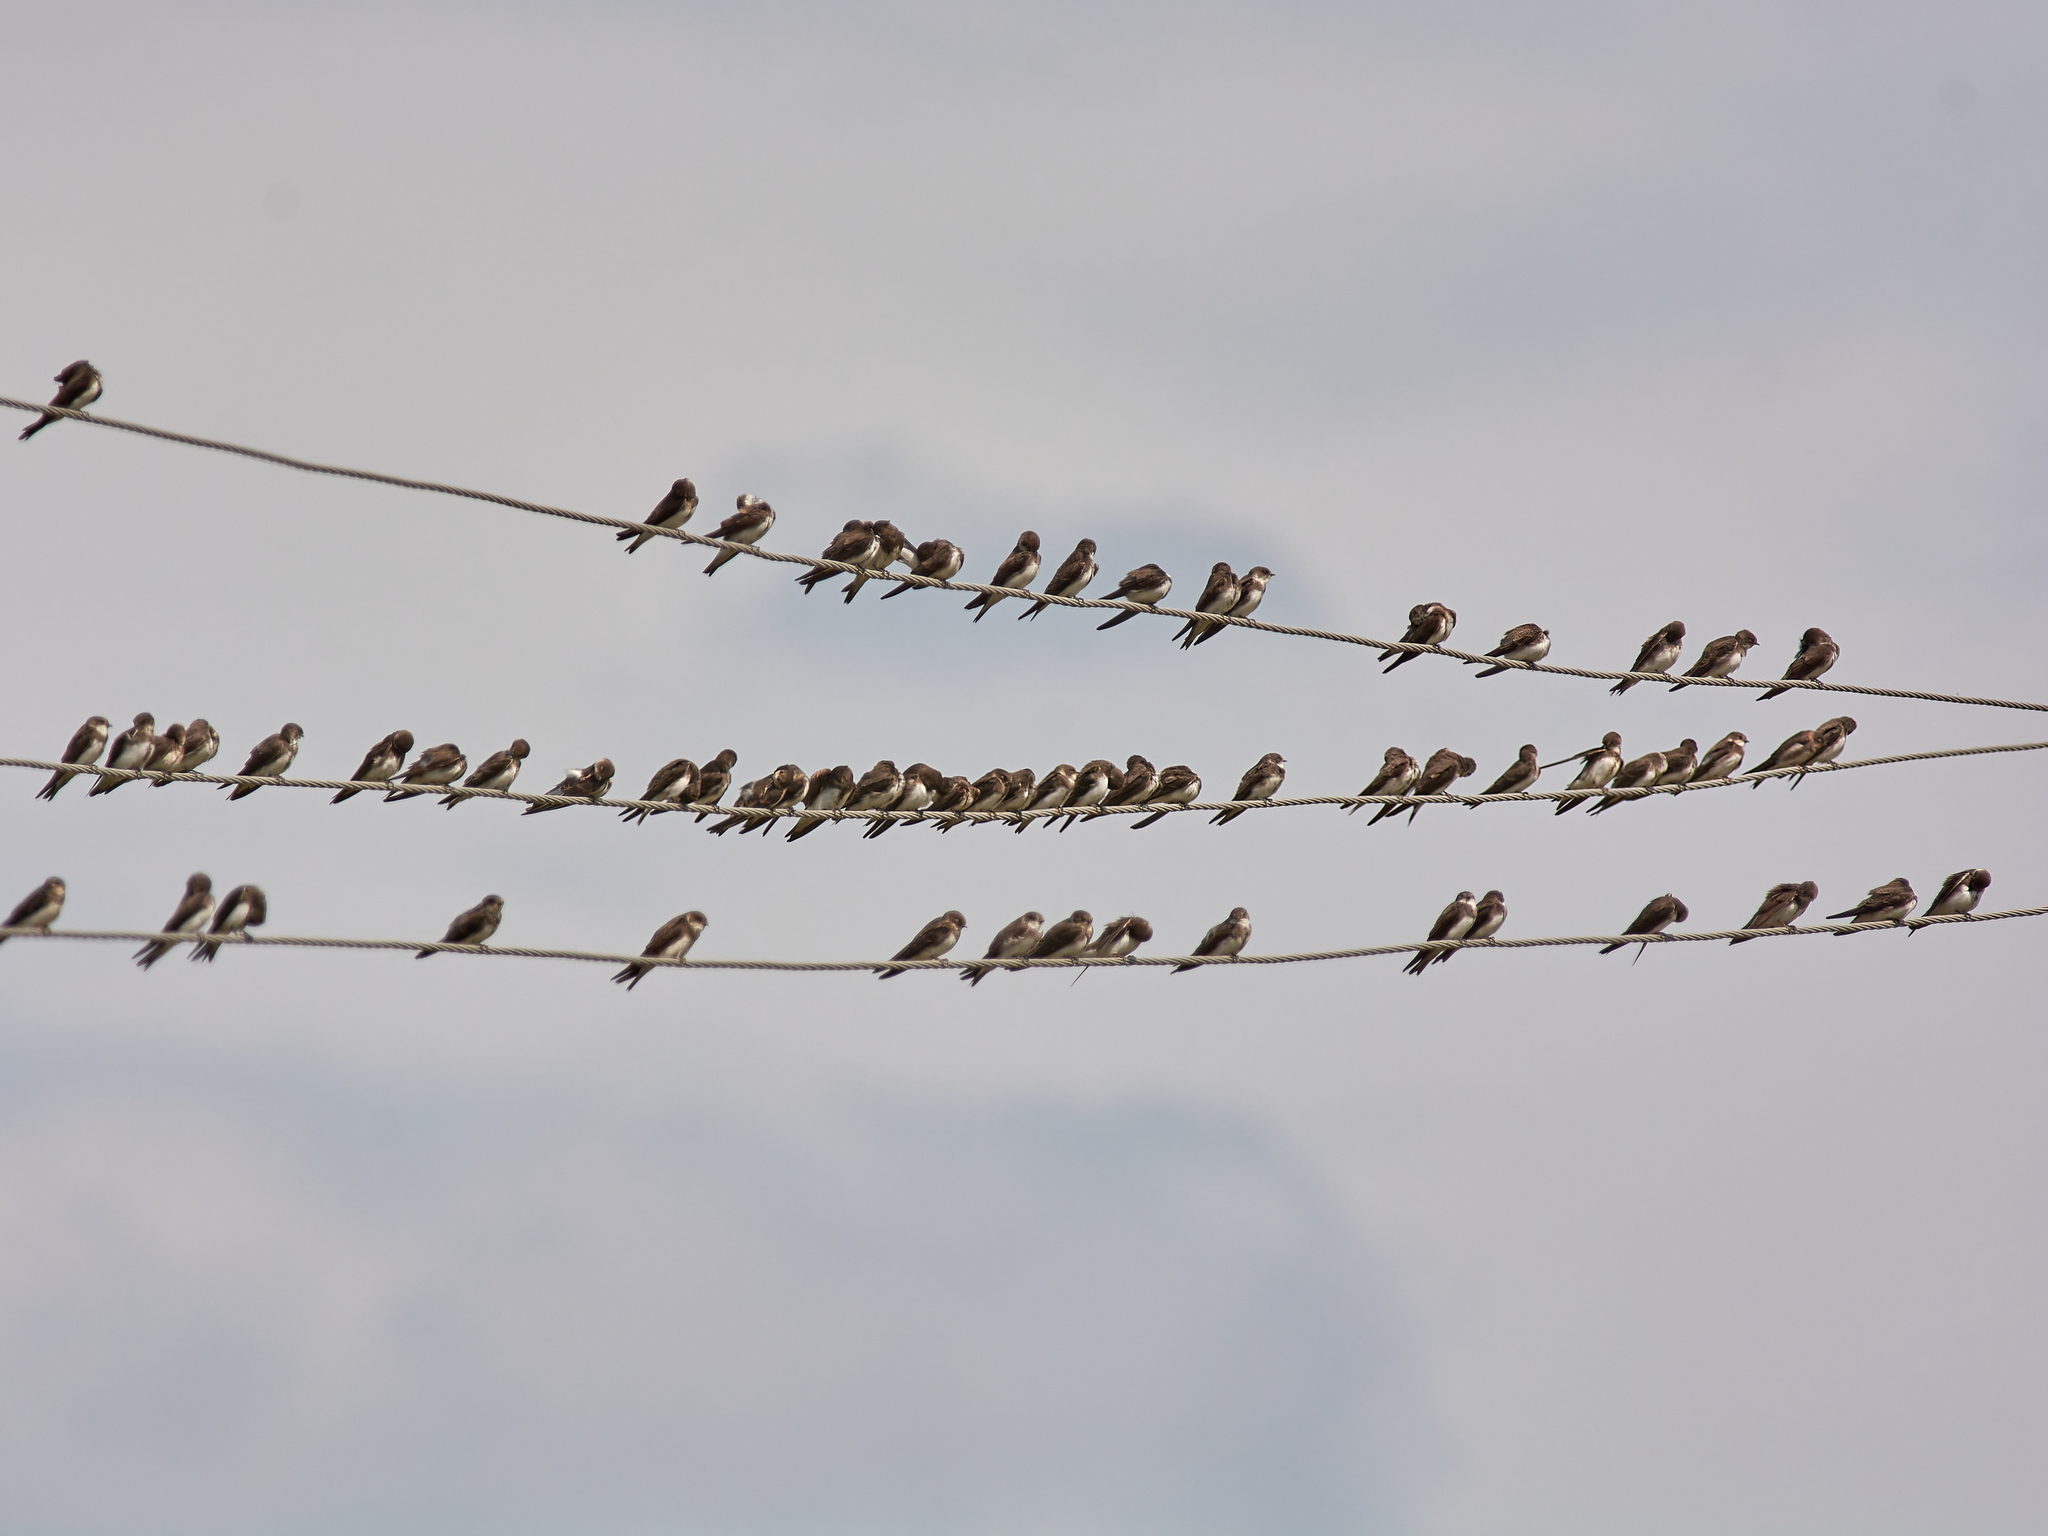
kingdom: Animalia
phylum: Chordata
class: Aves
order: Passeriformes
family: Hirundinidae
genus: Riparia
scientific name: Riparia riparia
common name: Sand martin
